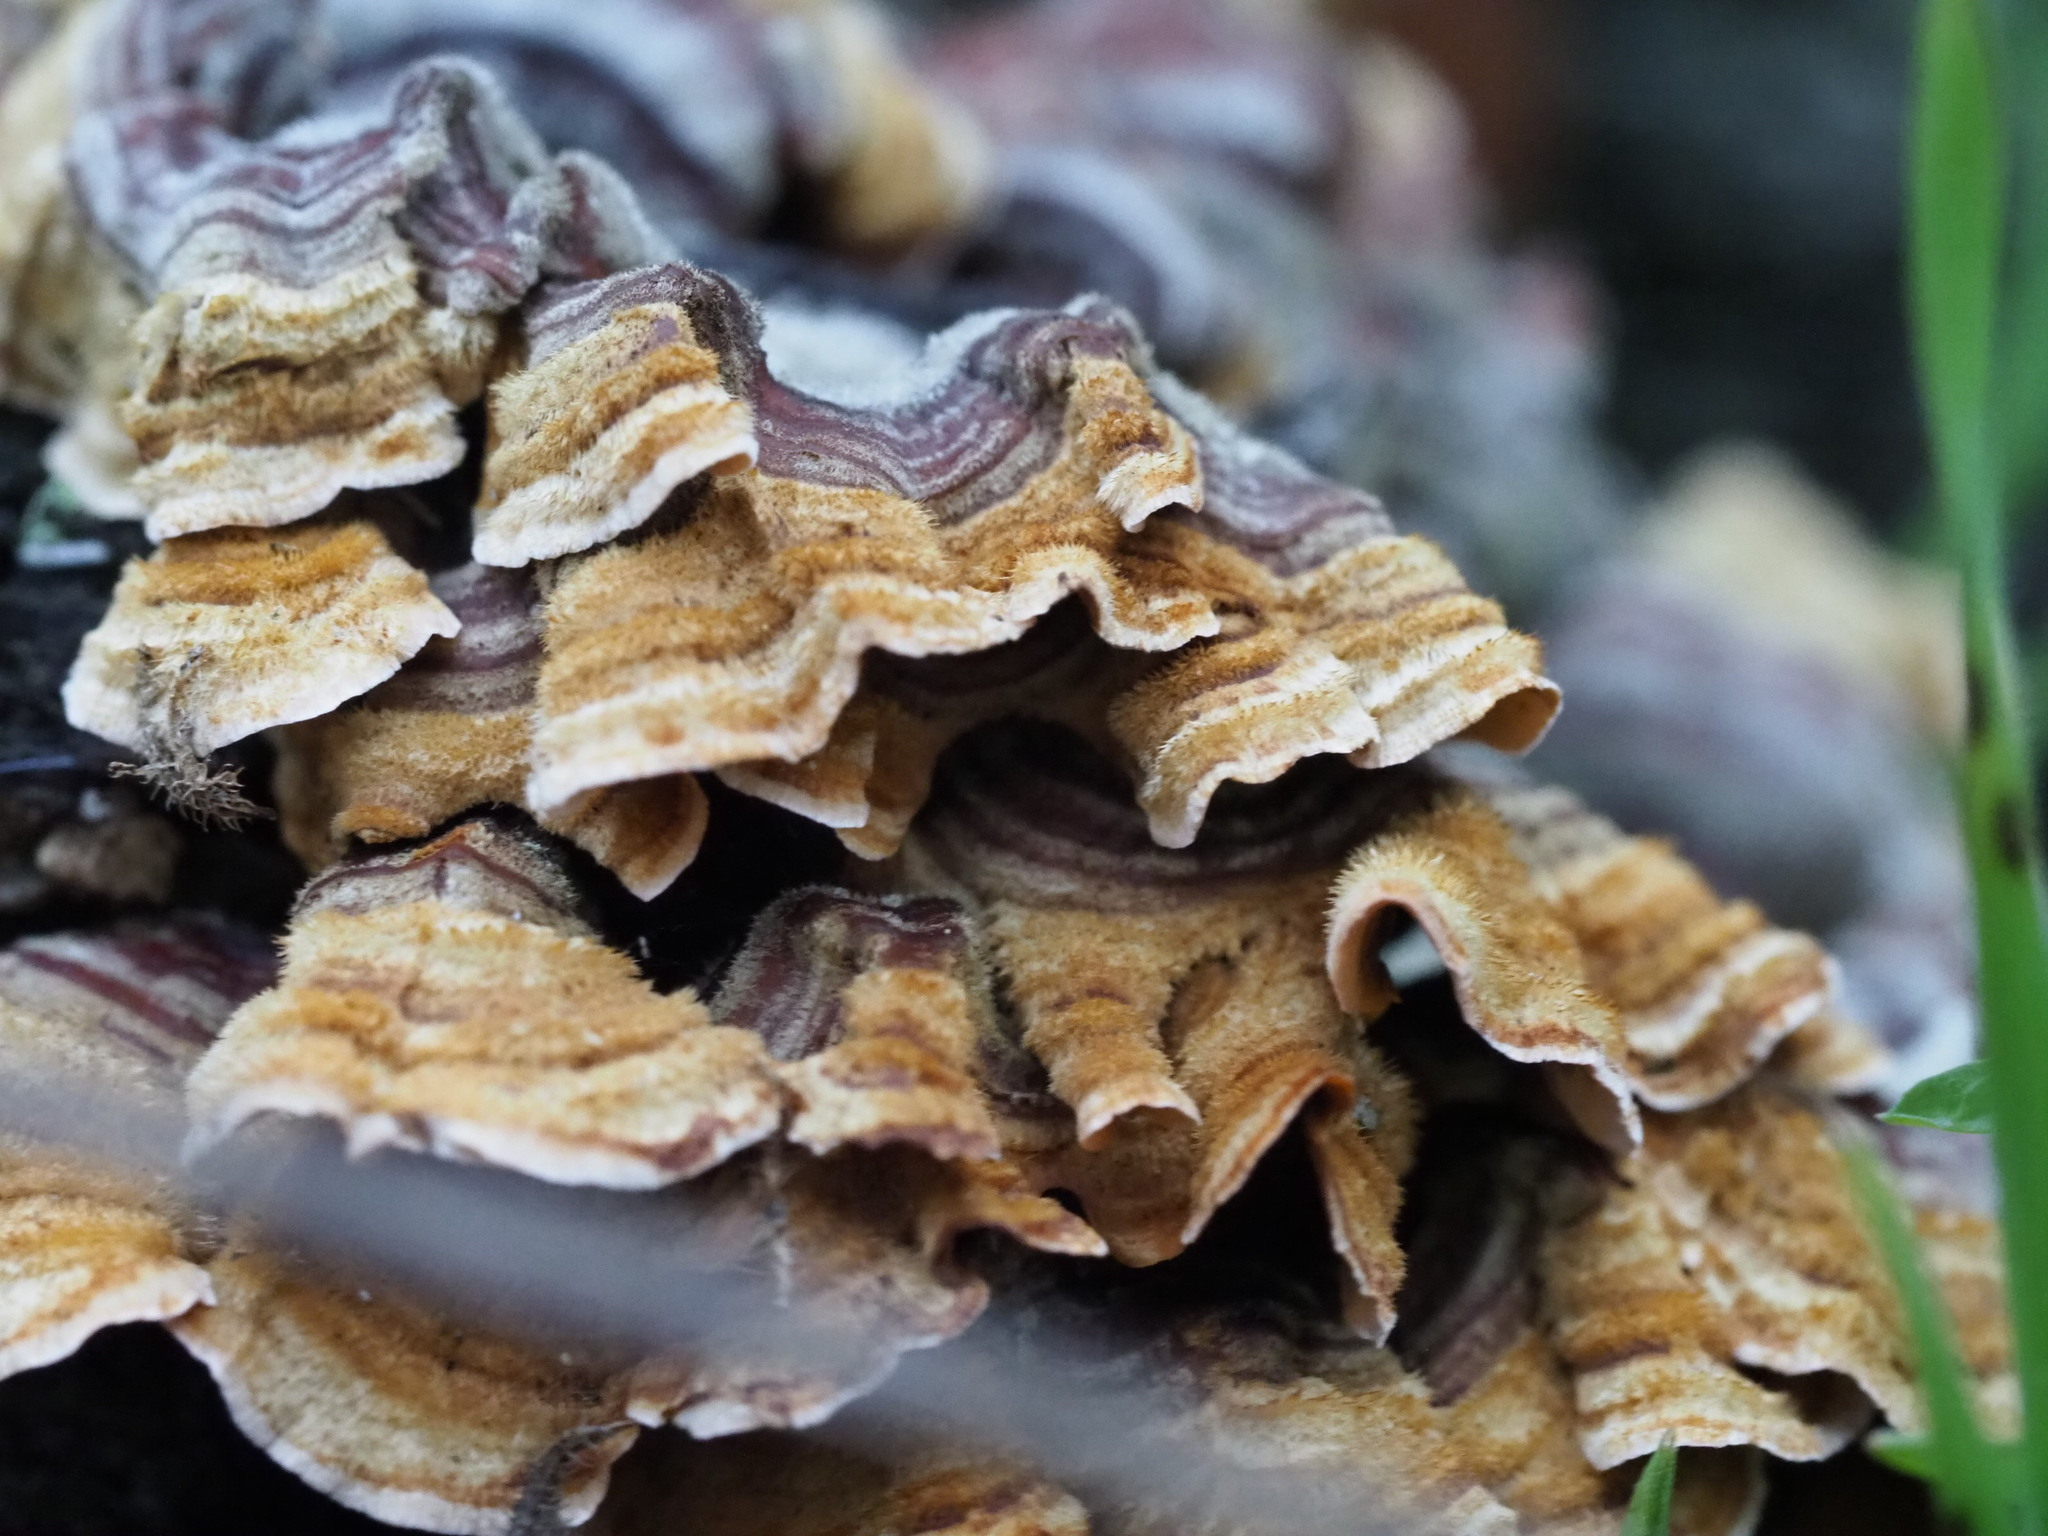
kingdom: Fungi
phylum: Basidiomycota
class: Agaricomycetes
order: Polyporales
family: Polyporaceae
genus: Trametes
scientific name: Trametes versicolor
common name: Turkeytail
